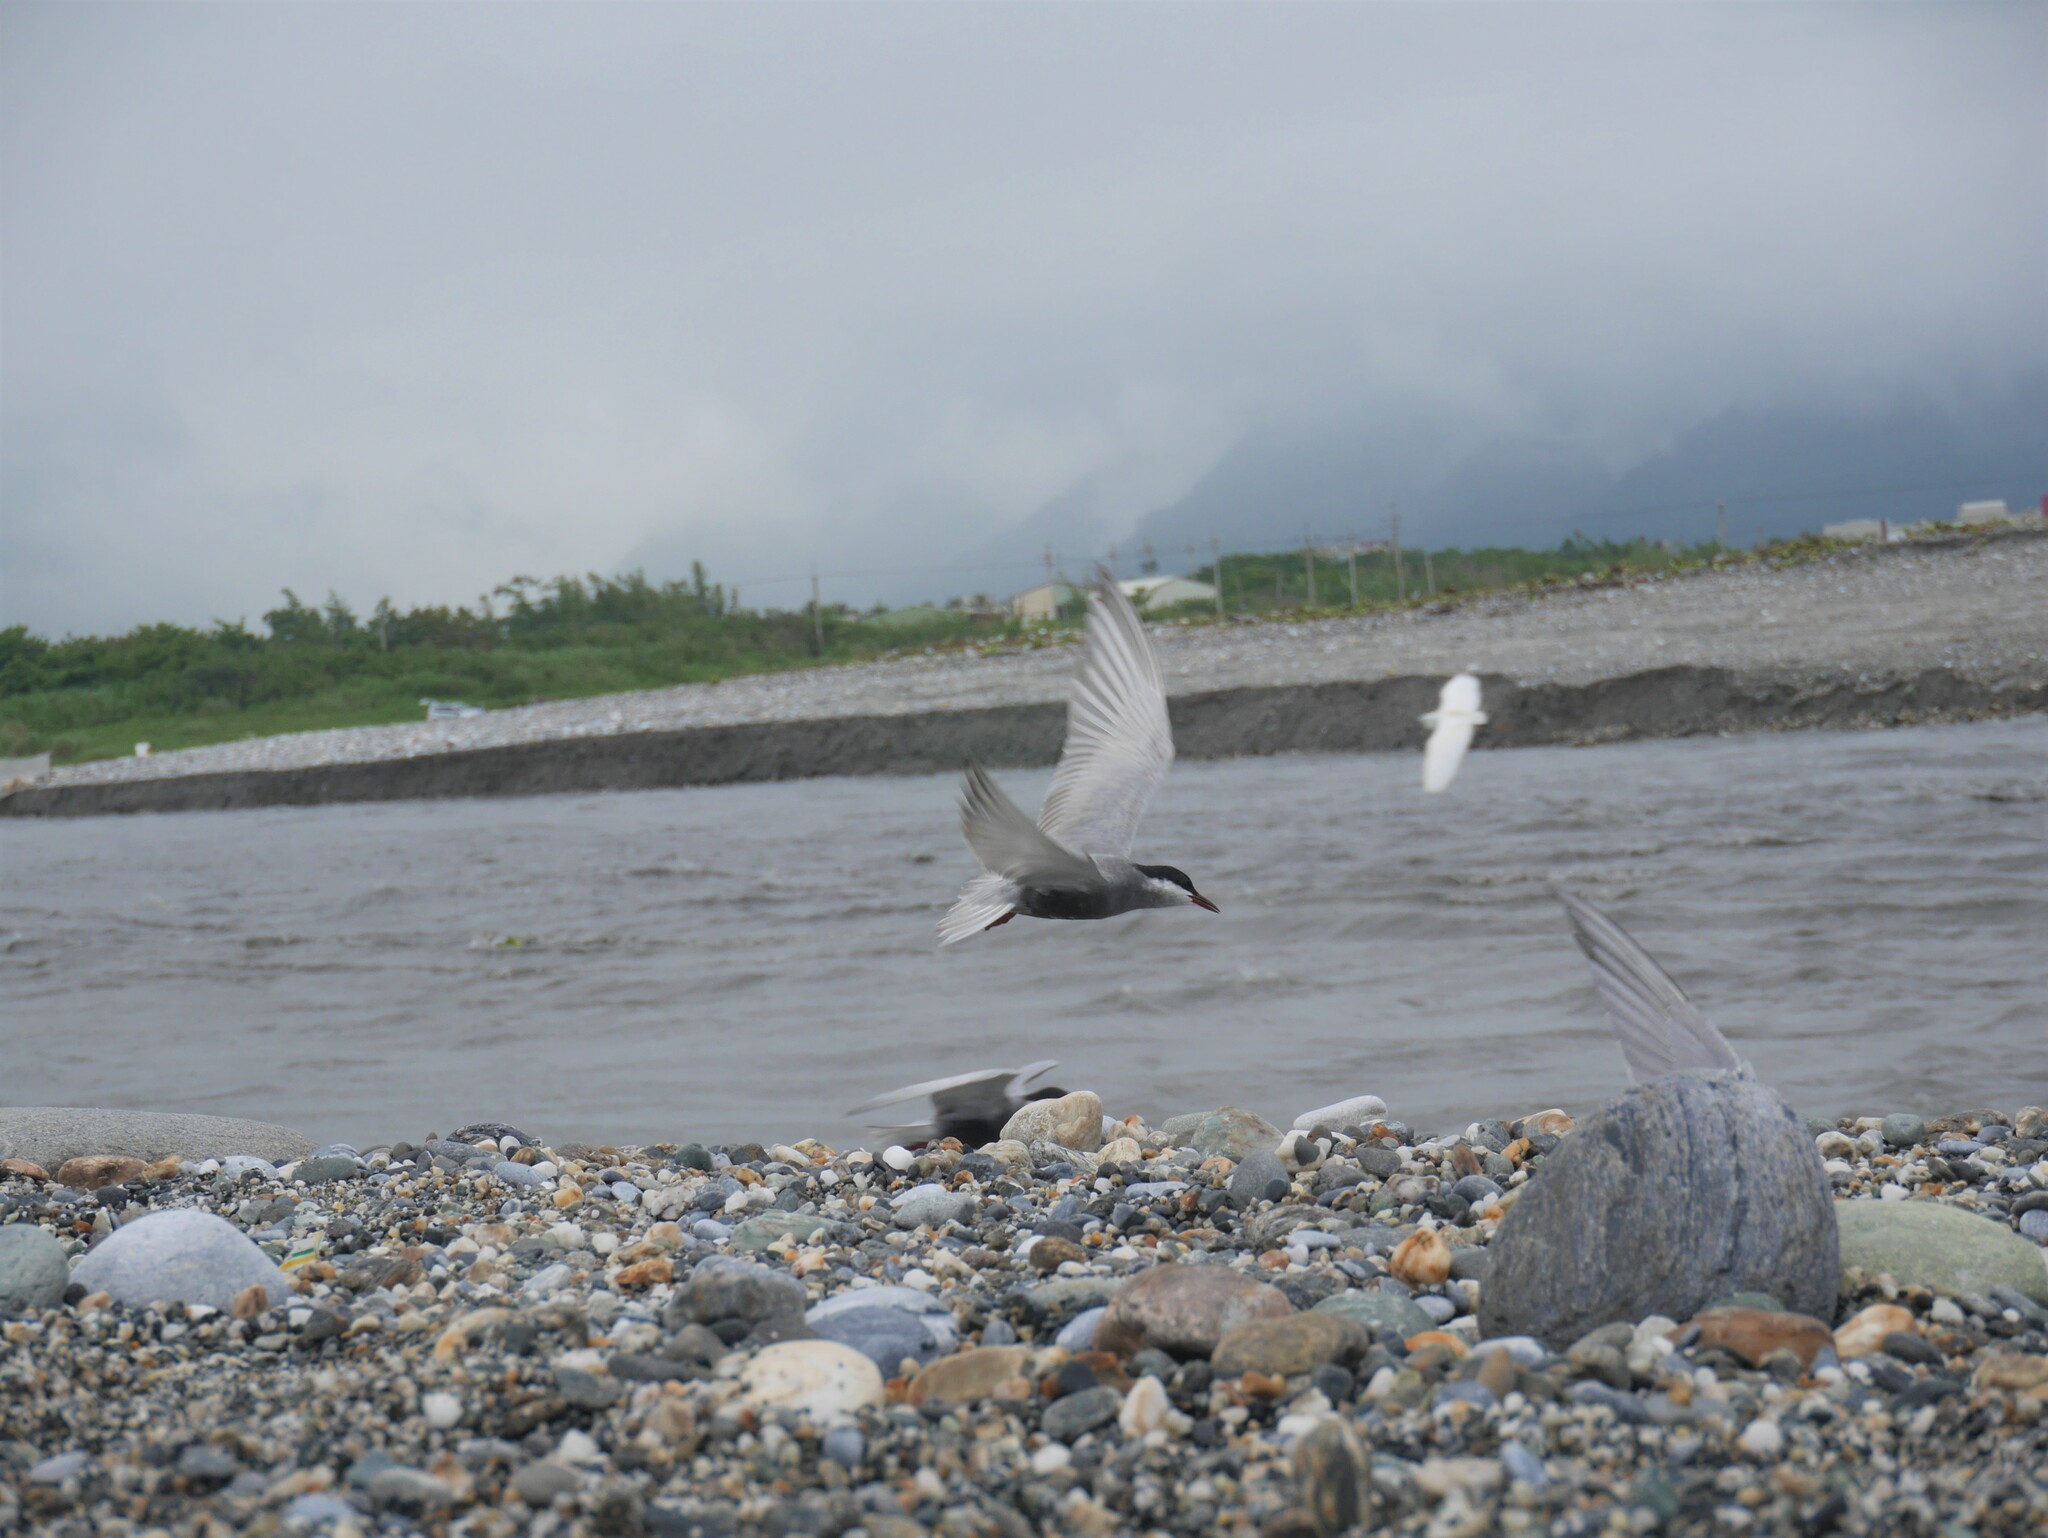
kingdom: Animalia
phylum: Chordata
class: Aves
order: Charadriiformes
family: Laridae
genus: Chlidonias
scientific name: Chlidonias hybrida
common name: Whiskered tern
